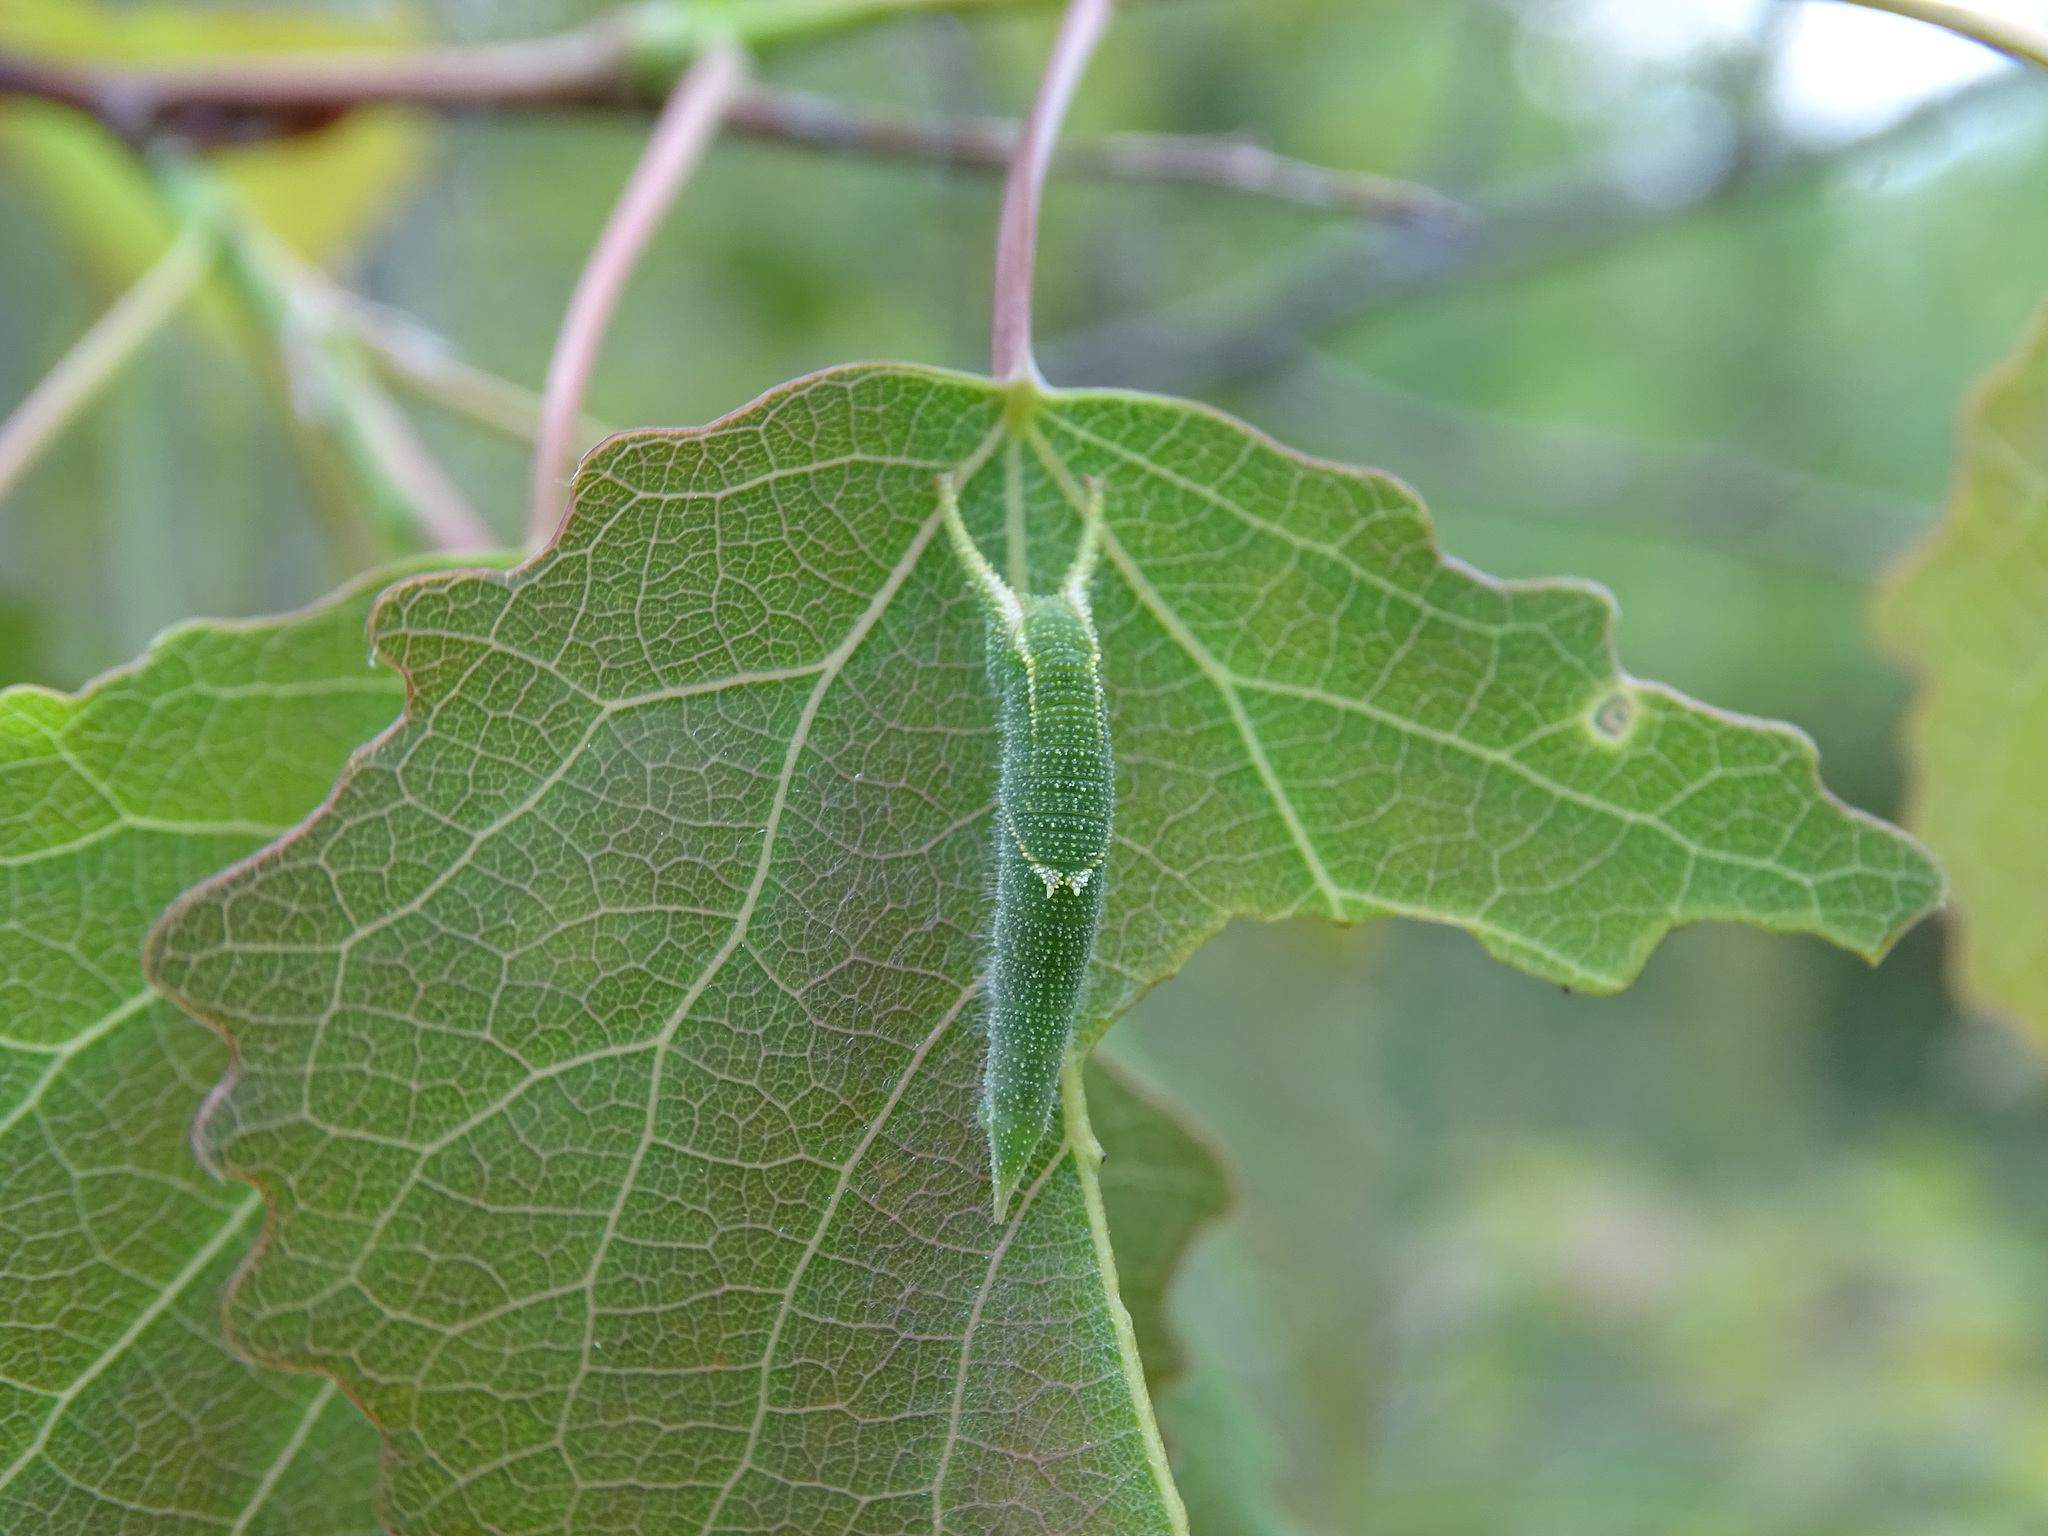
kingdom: Animalia
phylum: Arthropoda
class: Insecta
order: Lepidoptera
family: Nymphalidae
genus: Apatura
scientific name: Apatura ilia
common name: Lesser purple emperor
